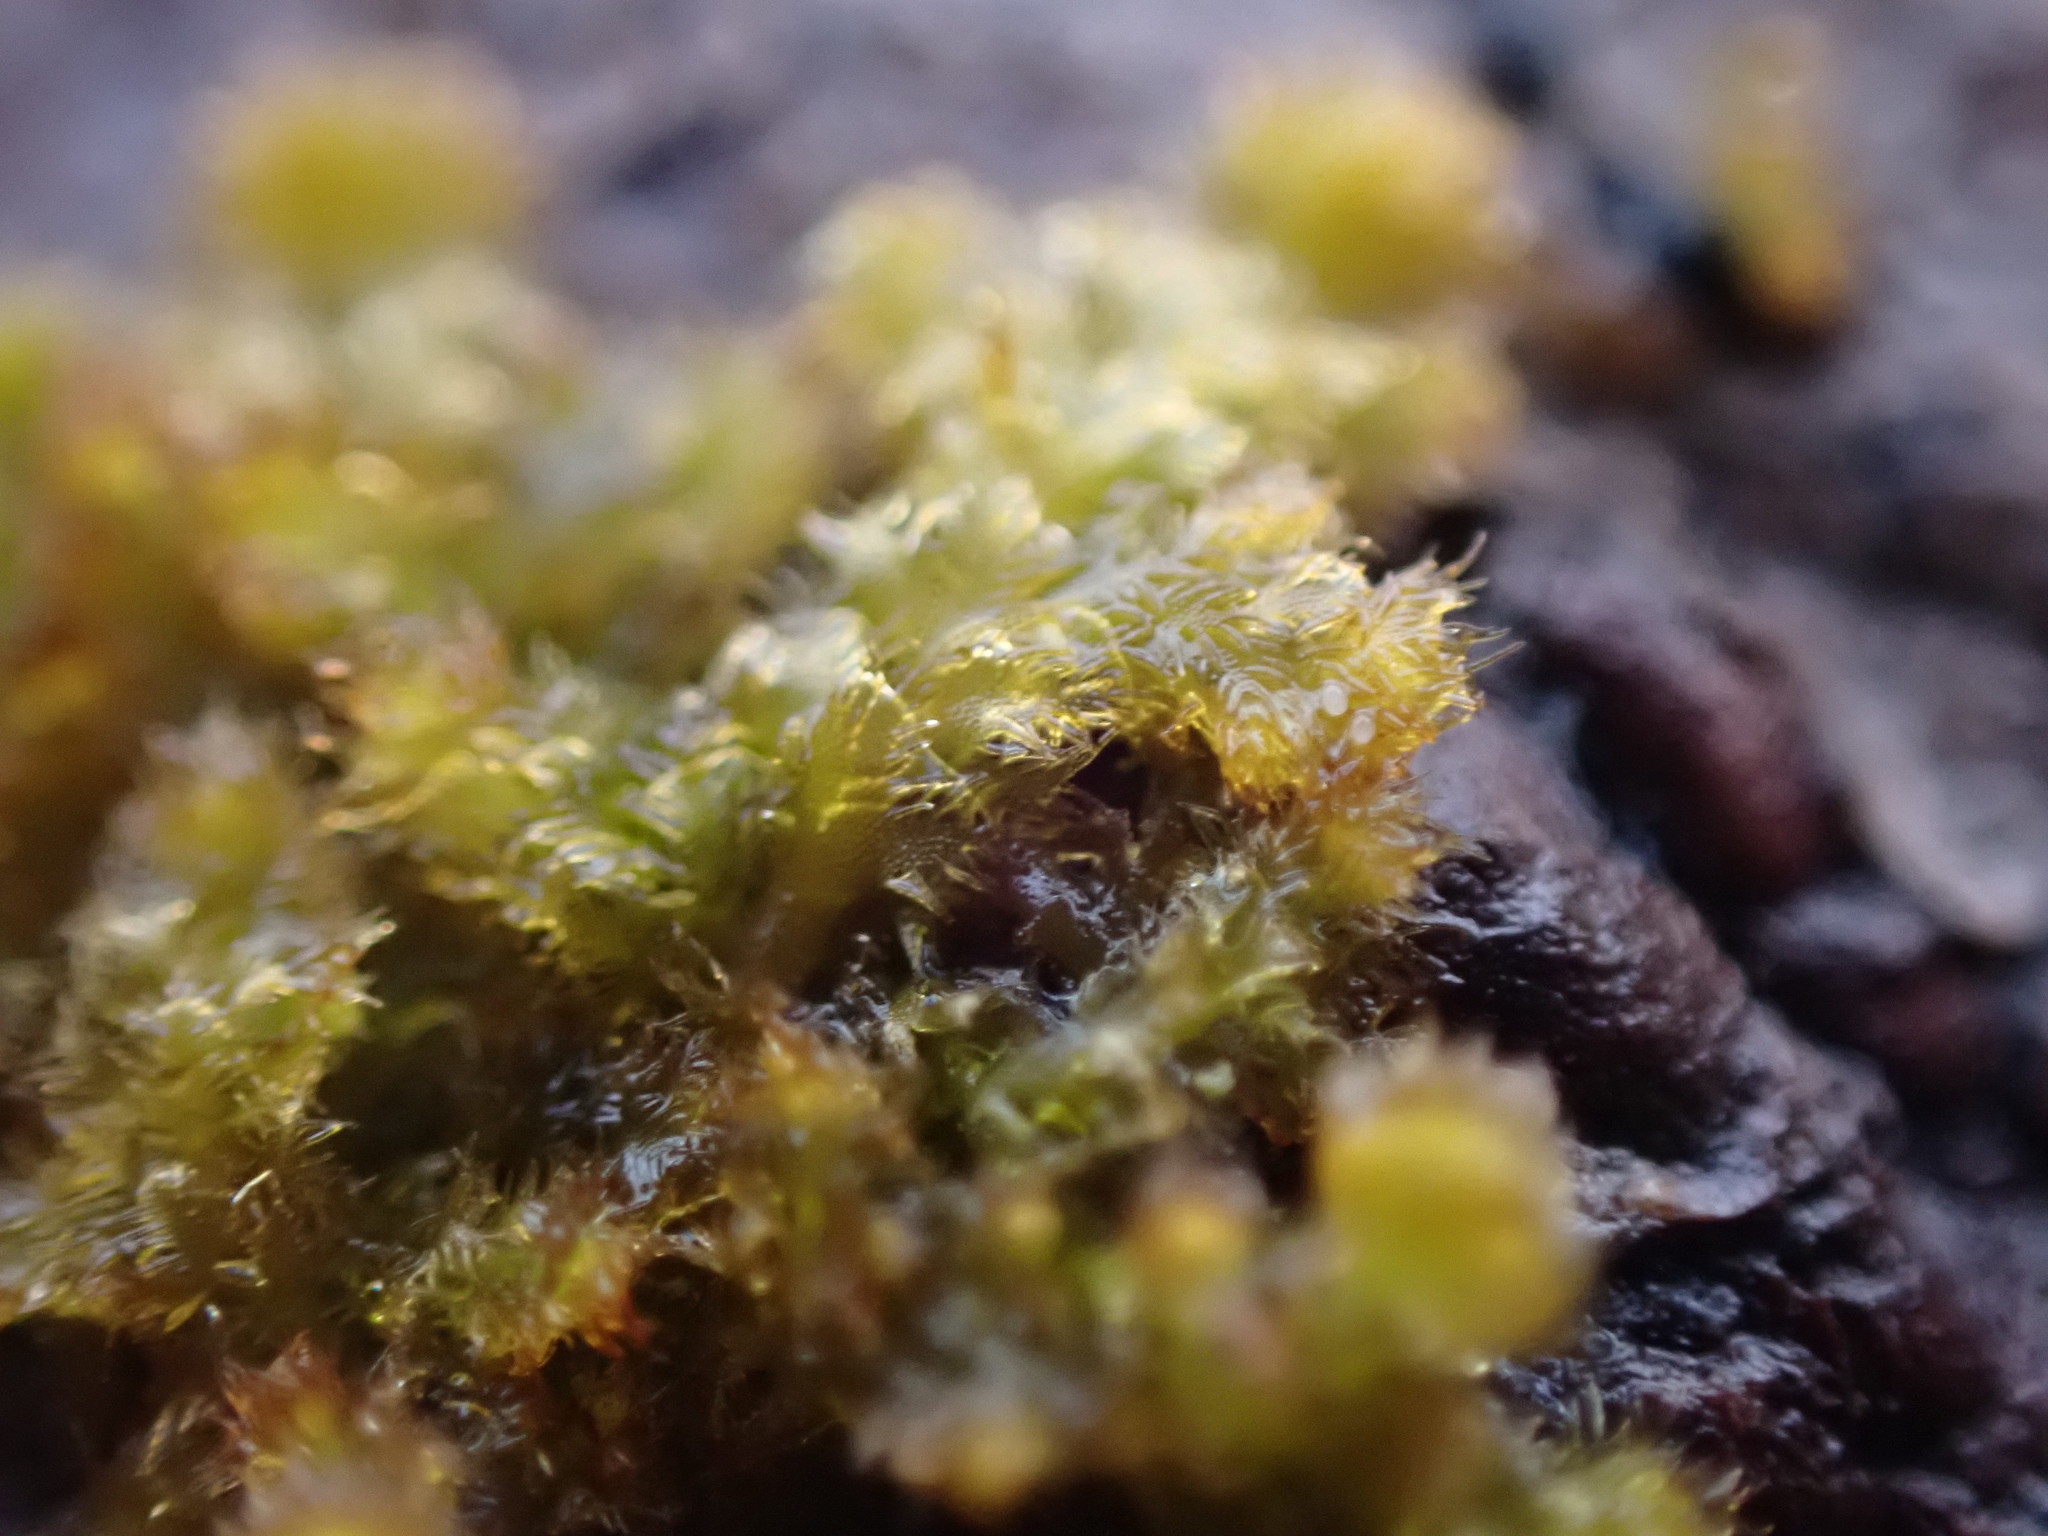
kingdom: Plantae
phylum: Marchantiophyta
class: Jungermanniopsida
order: Ptilidiales
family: Ptilidiaceae
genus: Ptilidium
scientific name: Ptilidium pulcherrimum
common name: Tree fringewort
